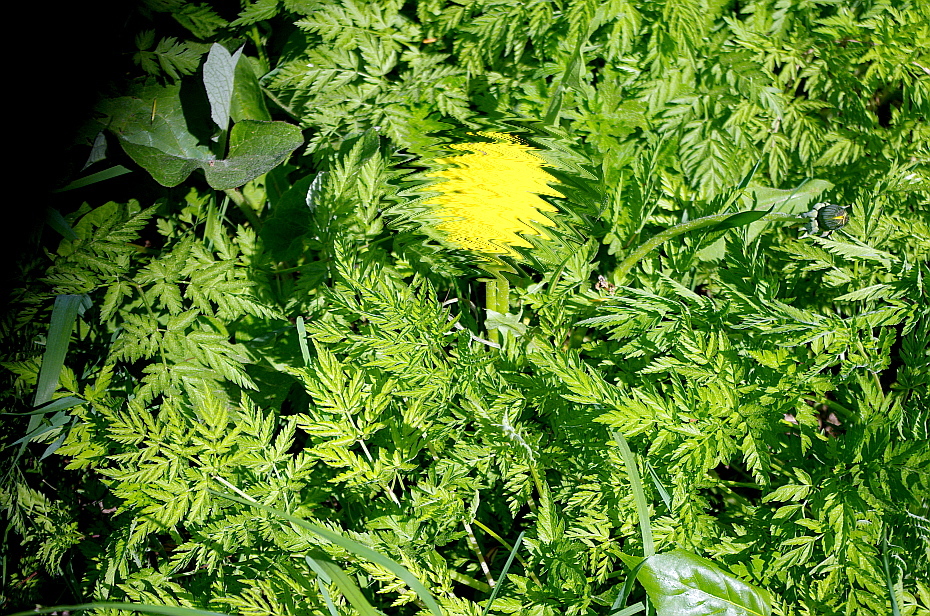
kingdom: Plantae
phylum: Tracheophyta
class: Magnoliopsida
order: Apiales
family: Apiaceae
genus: Anthriscus
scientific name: Anthriscus sylvestris
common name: Cow parsley
